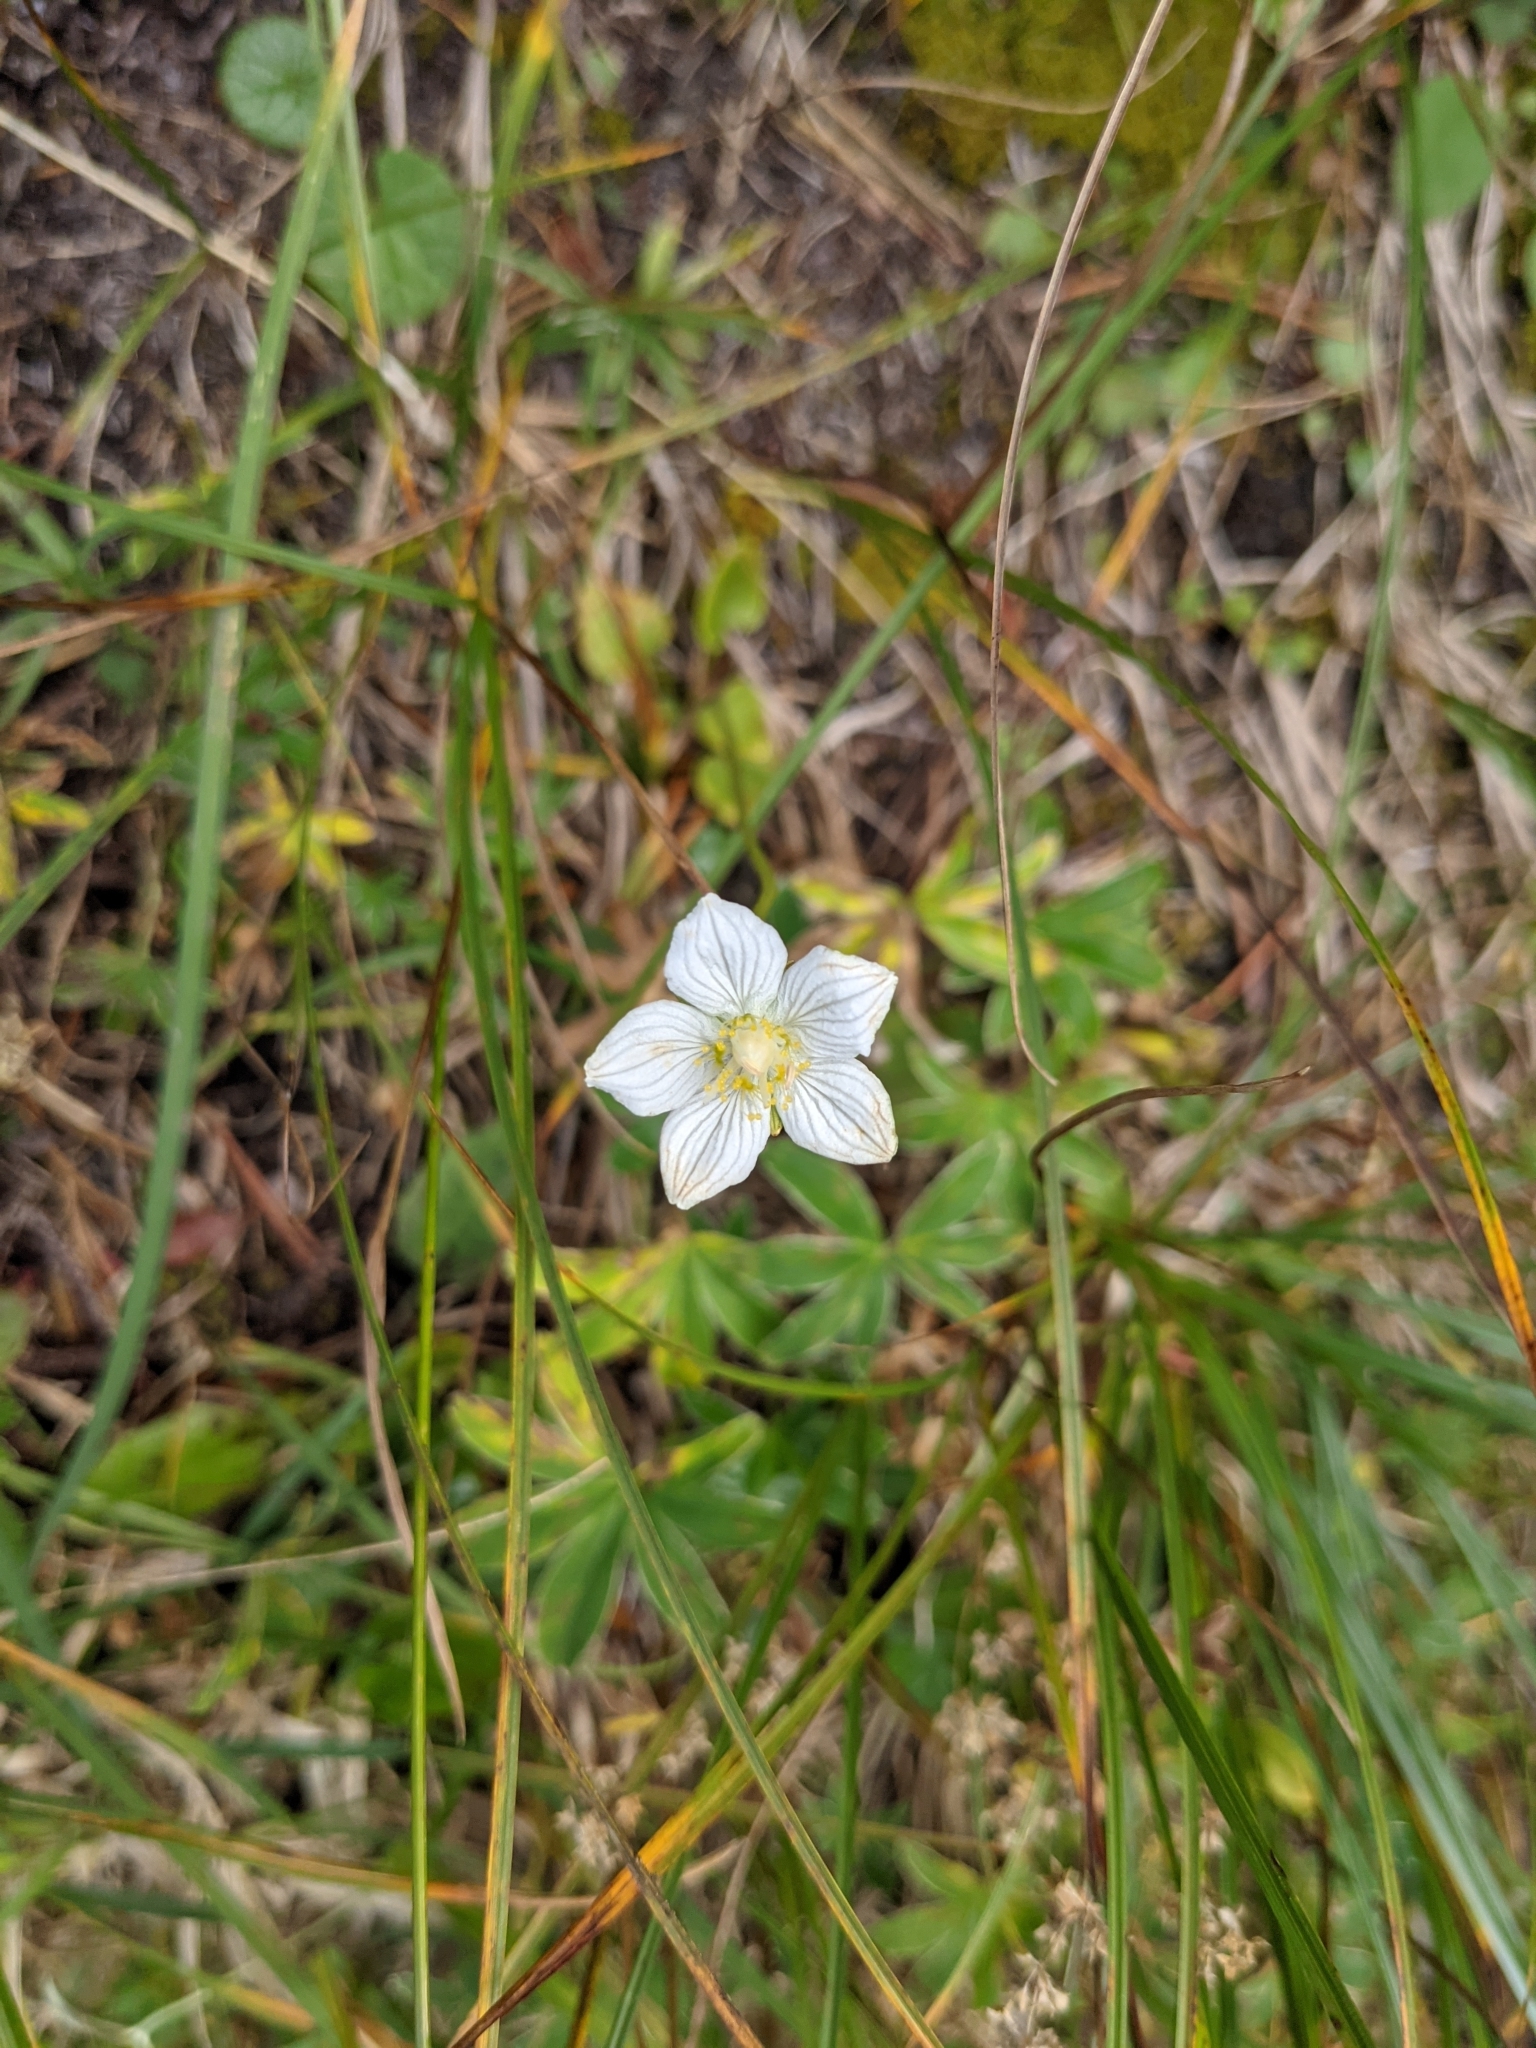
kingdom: Plantae
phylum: Tracheophyta
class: Magnoliopsida
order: Celastrales
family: Parnassiaceae
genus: Parnassia
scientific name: Parnassia palustris
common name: Grass-of-parnassus
